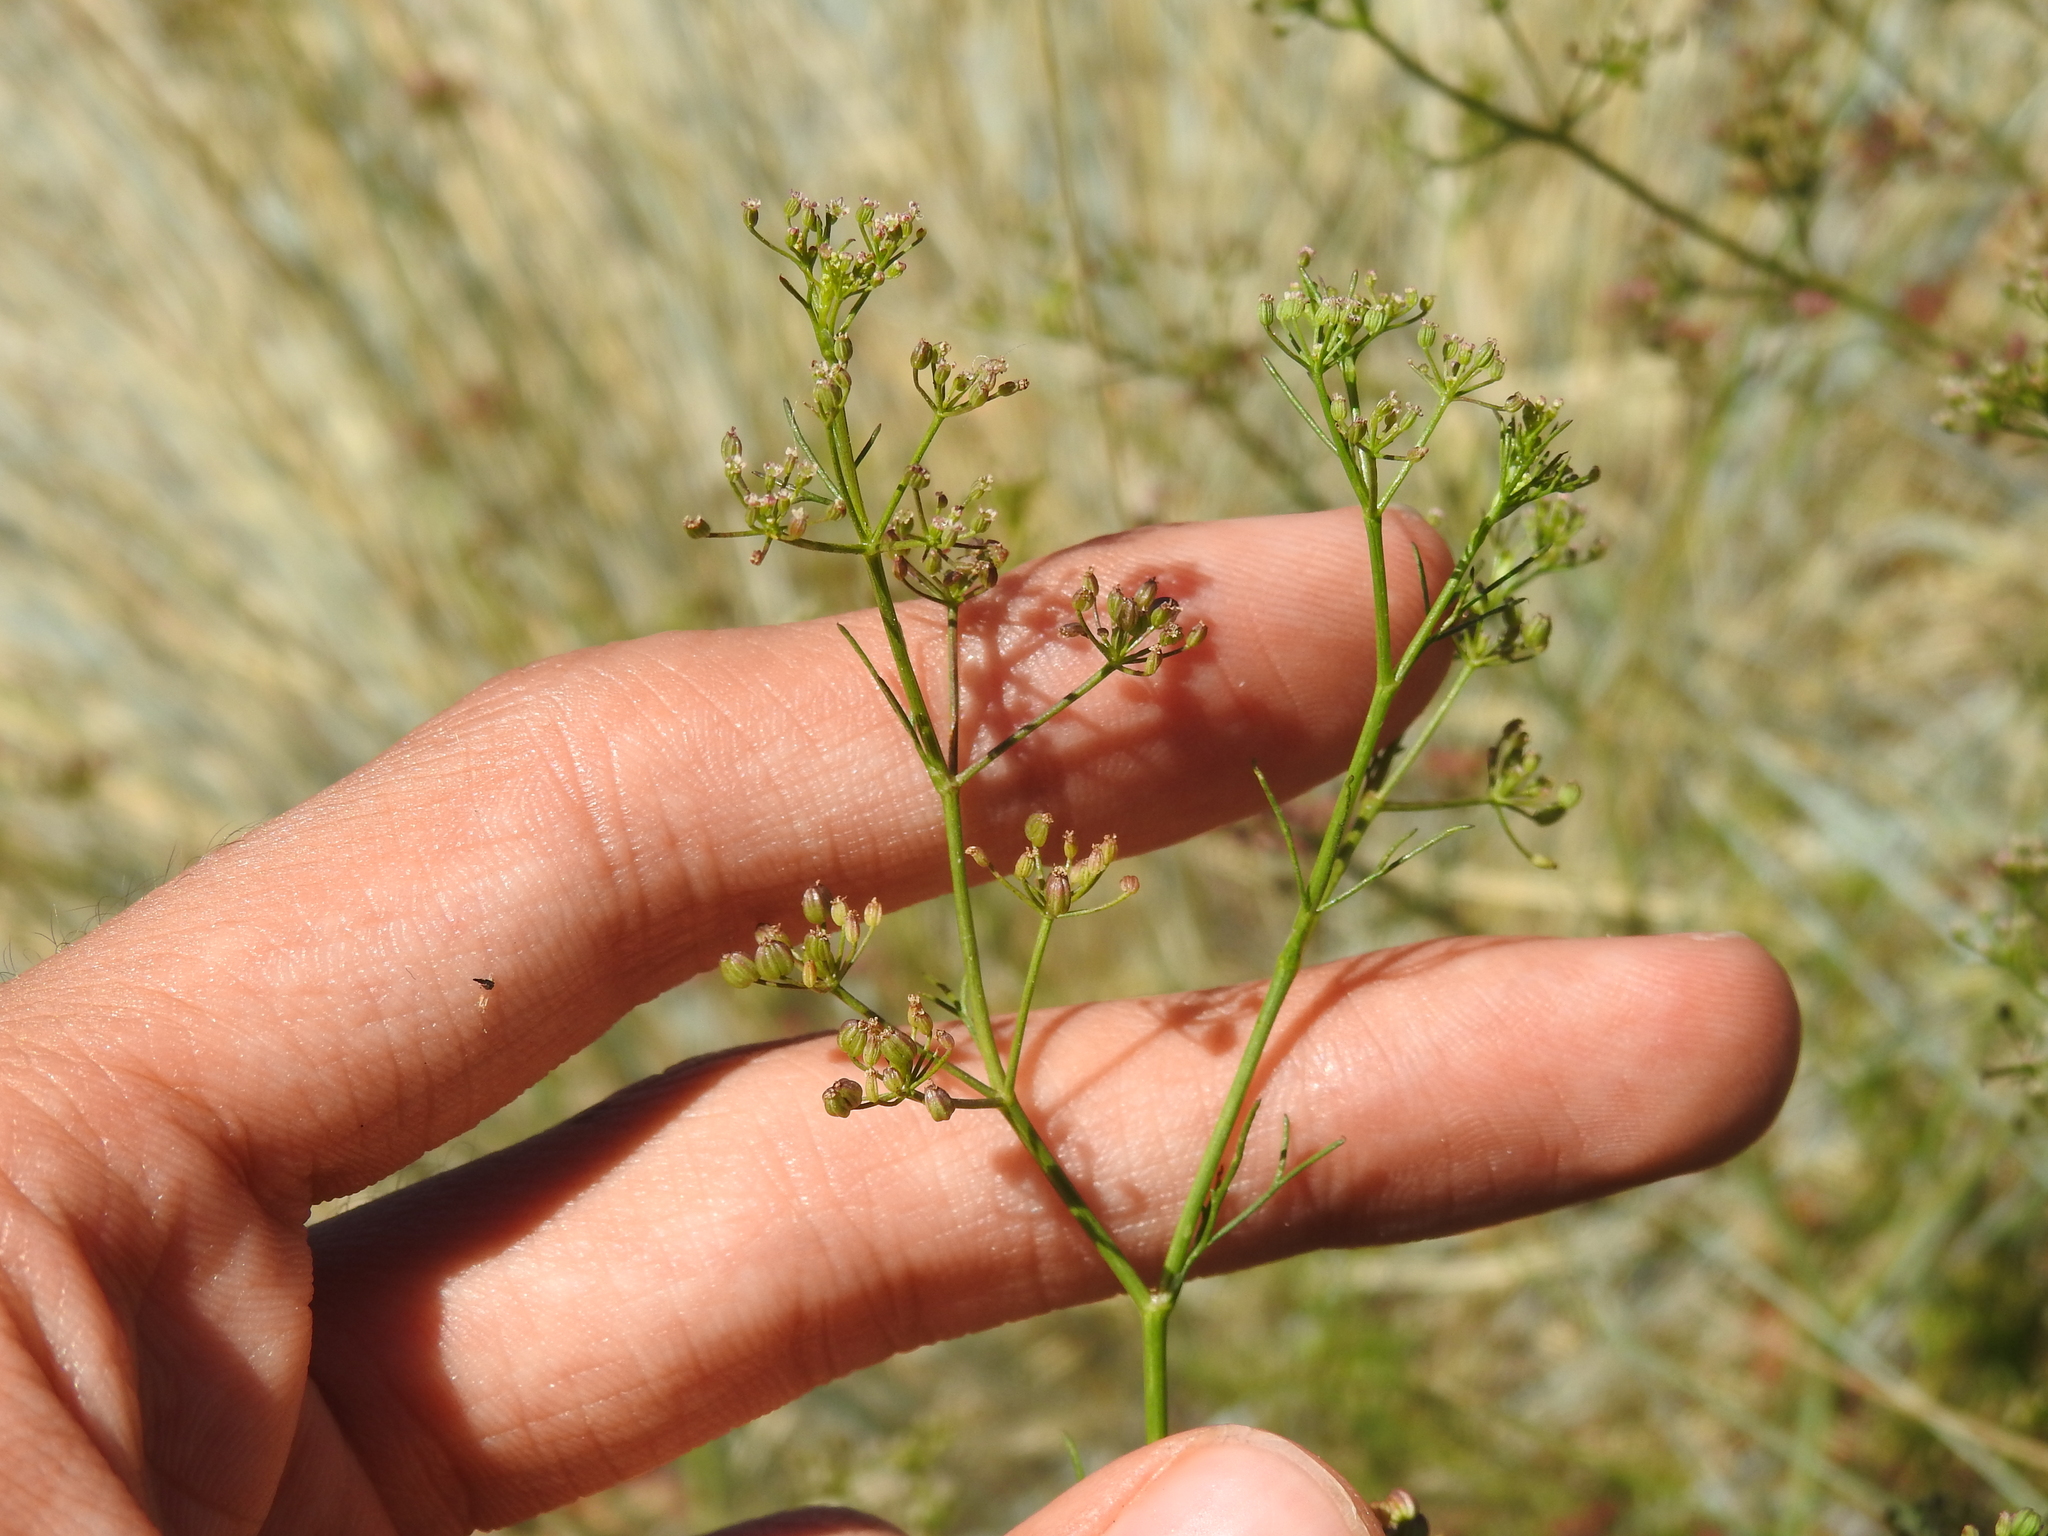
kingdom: Plantae
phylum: Tracheophyta
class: Magnoliopsida
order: Apiales
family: Apiaceae
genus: Cyclospermum
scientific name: Cyclospermum leptophyllum
